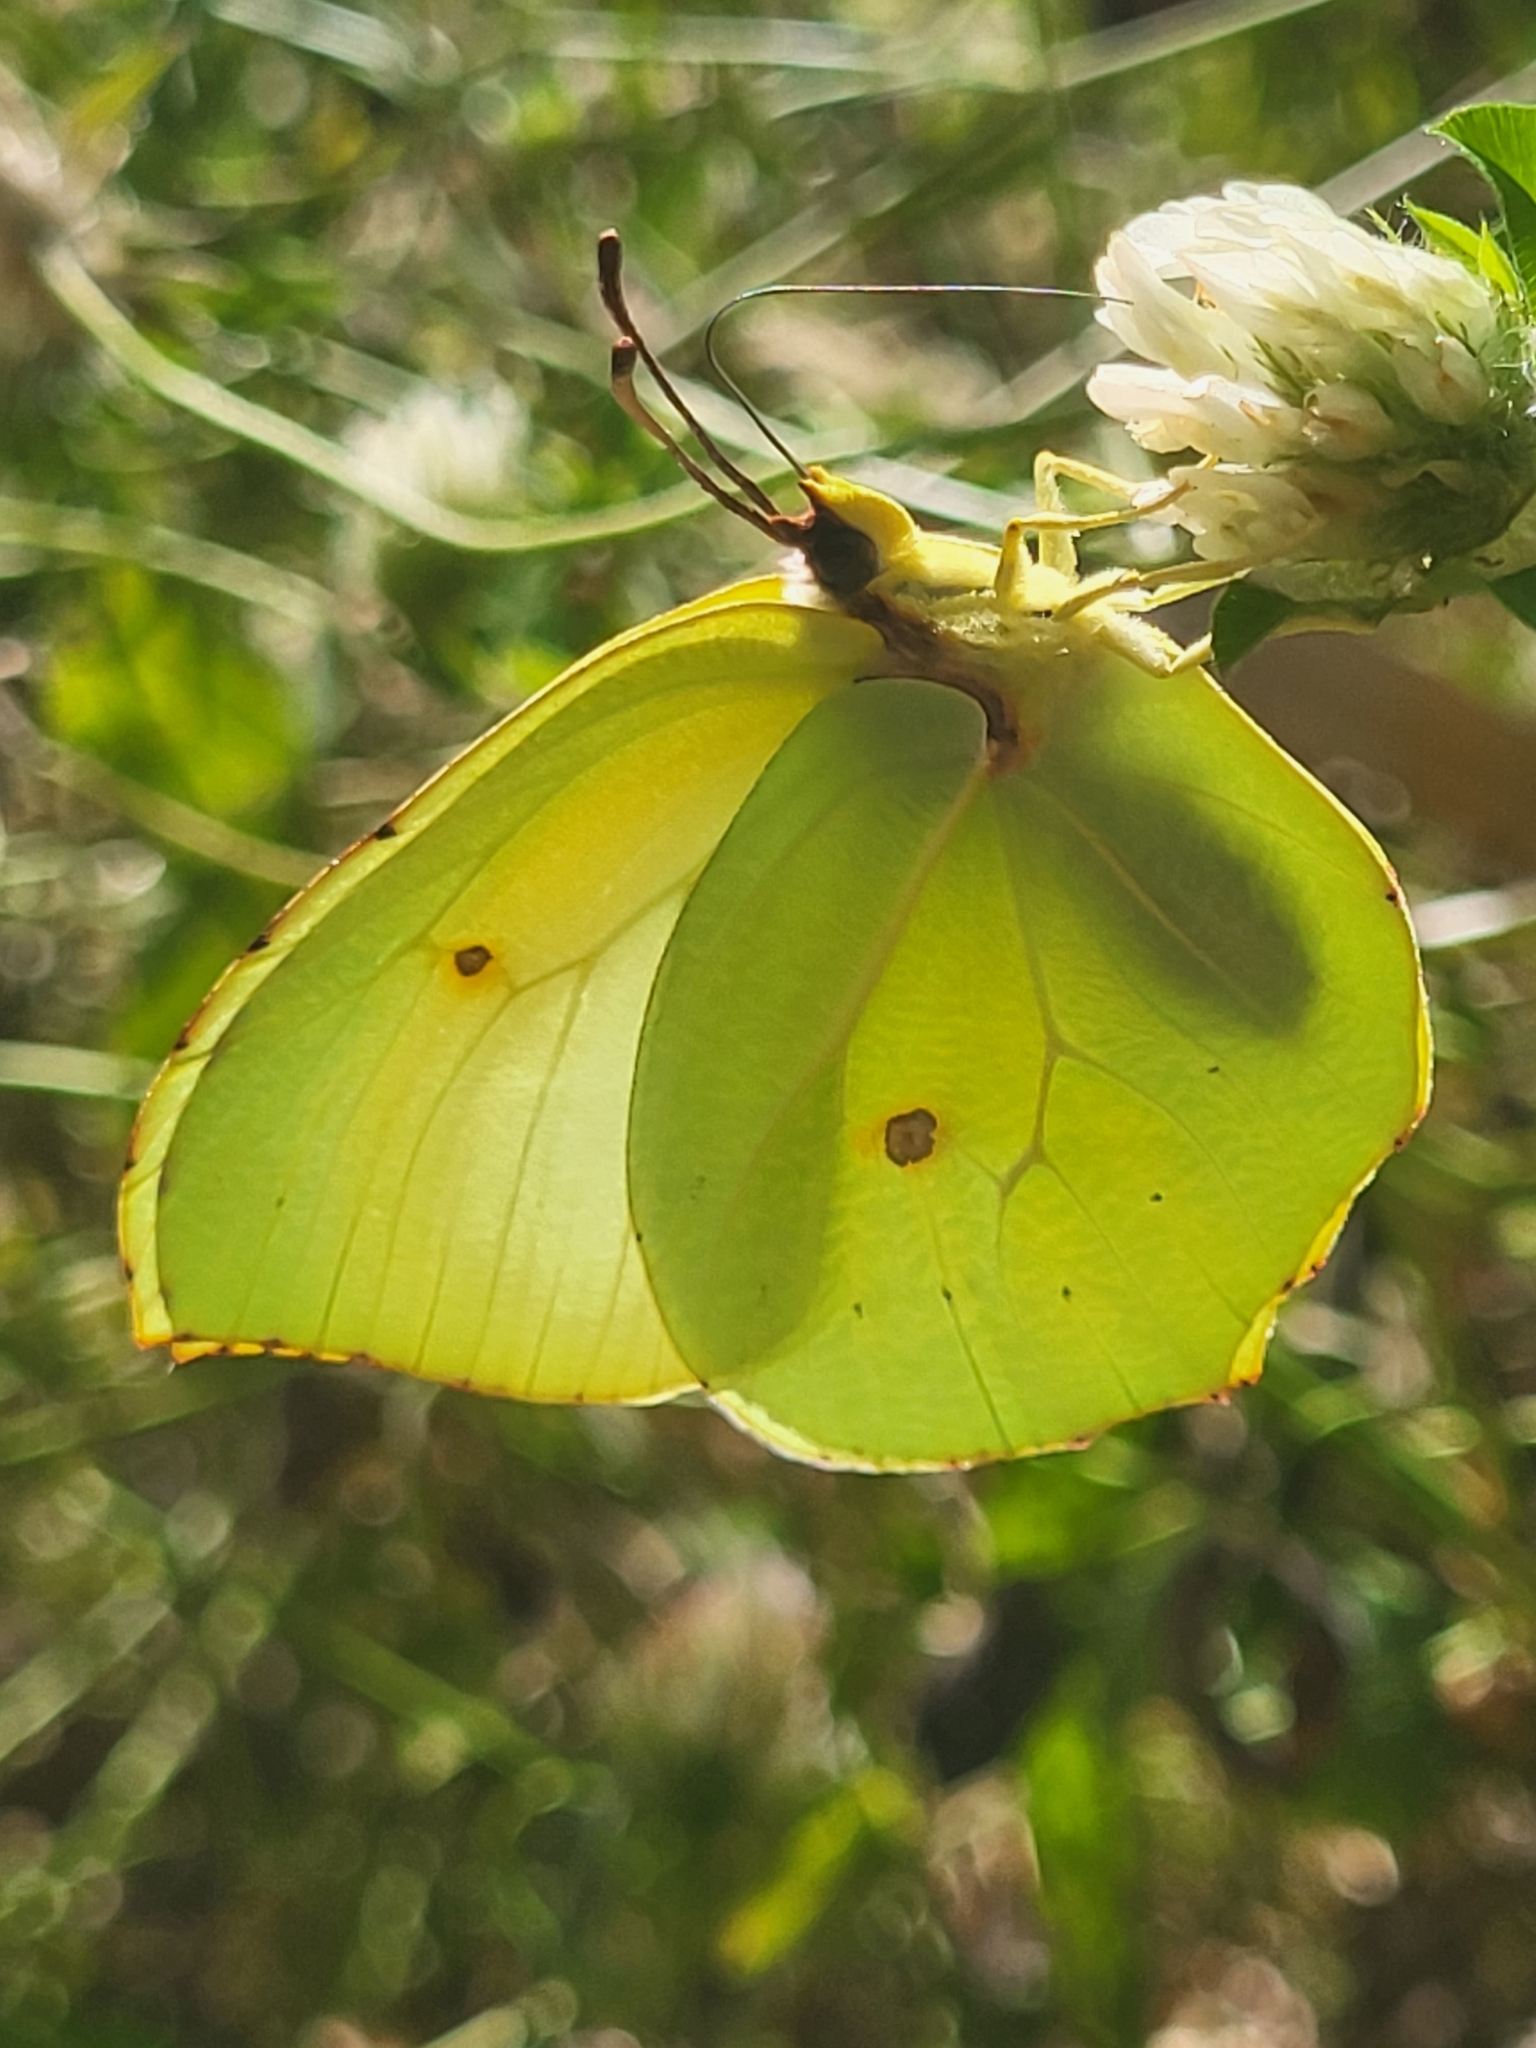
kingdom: Animalia
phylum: Arthropoda
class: Insecta
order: Lepidoptera
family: Pieridae
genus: Gonepteryx
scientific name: Gonepteryx cleopatra
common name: Cleopatra
